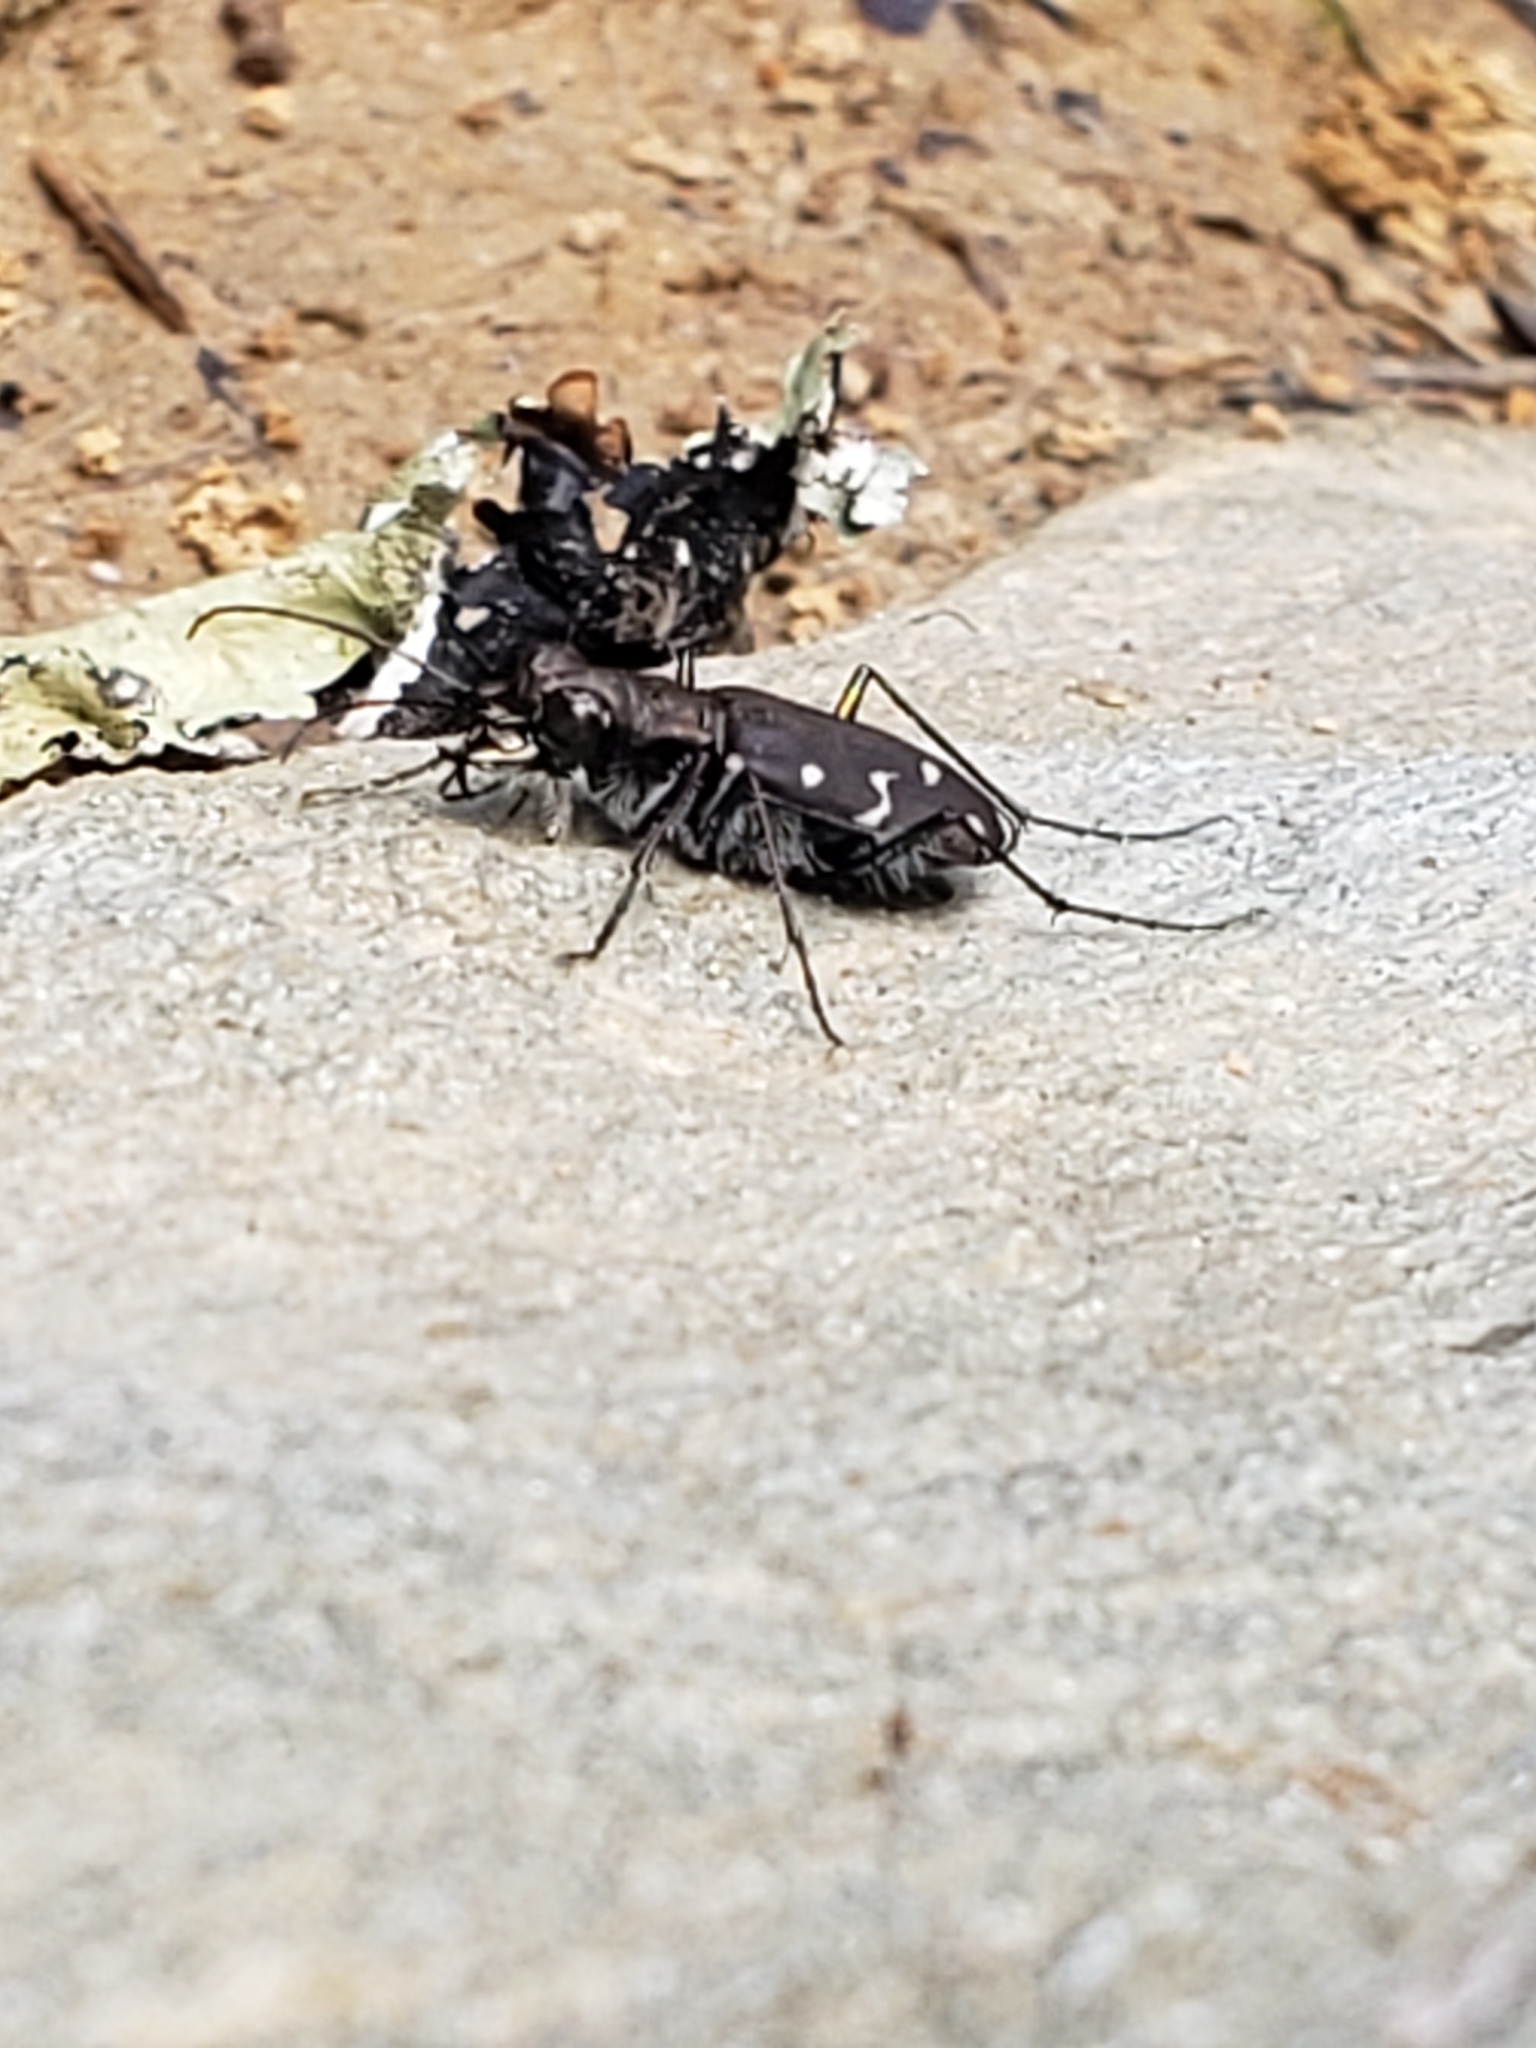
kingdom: Animalia
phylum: Arthropoda
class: Insecta
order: Coleoptera
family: Carabidae
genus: Cicindela
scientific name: Cicindela duodecimguttata
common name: Twelve-spotted tiger beetle
